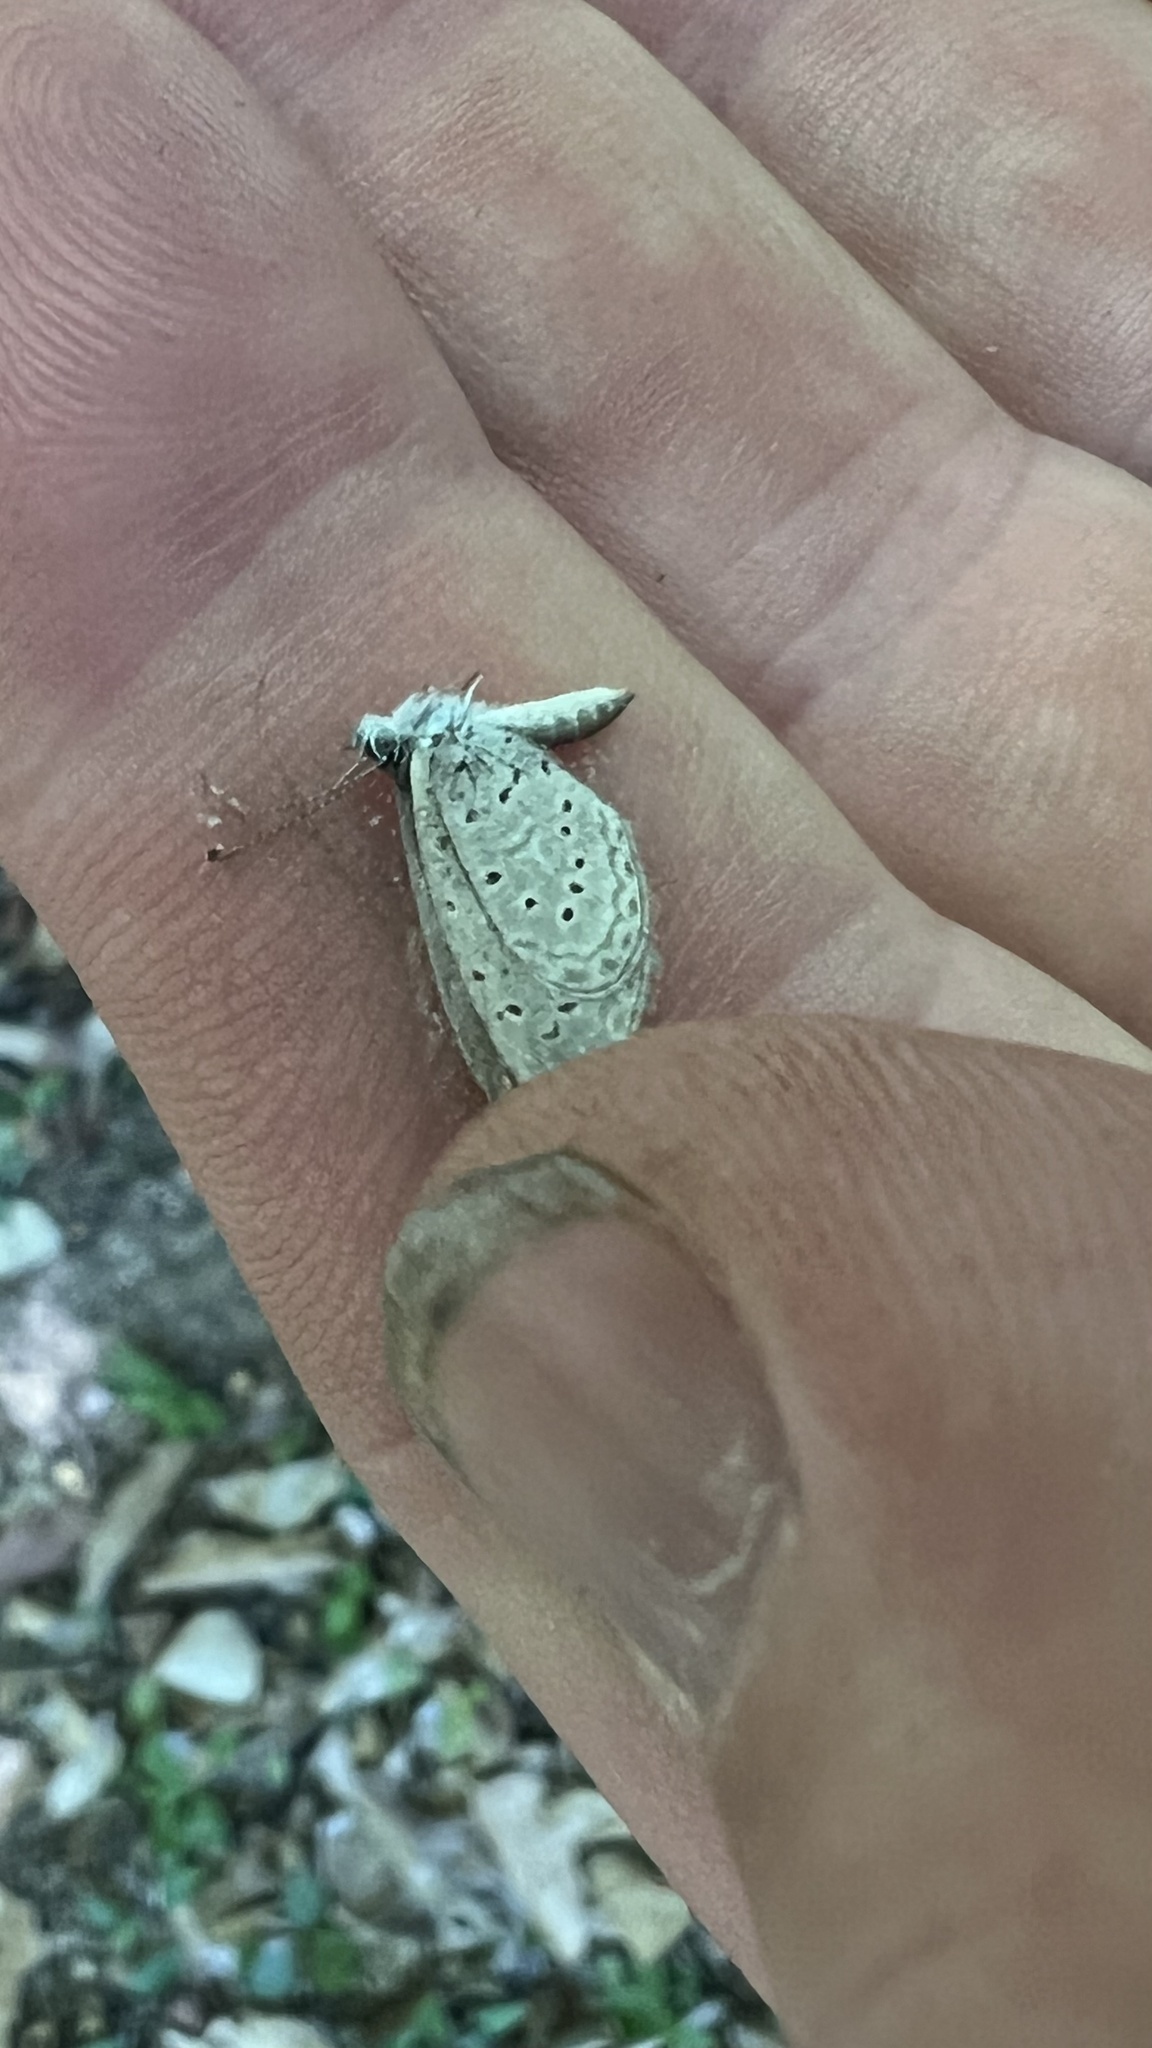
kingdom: Animalia
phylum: Arthropoda
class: Insecta
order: Lepidoptera
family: Lycaenidae
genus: Zizula
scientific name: Zizula hylax
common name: Gaika blue
